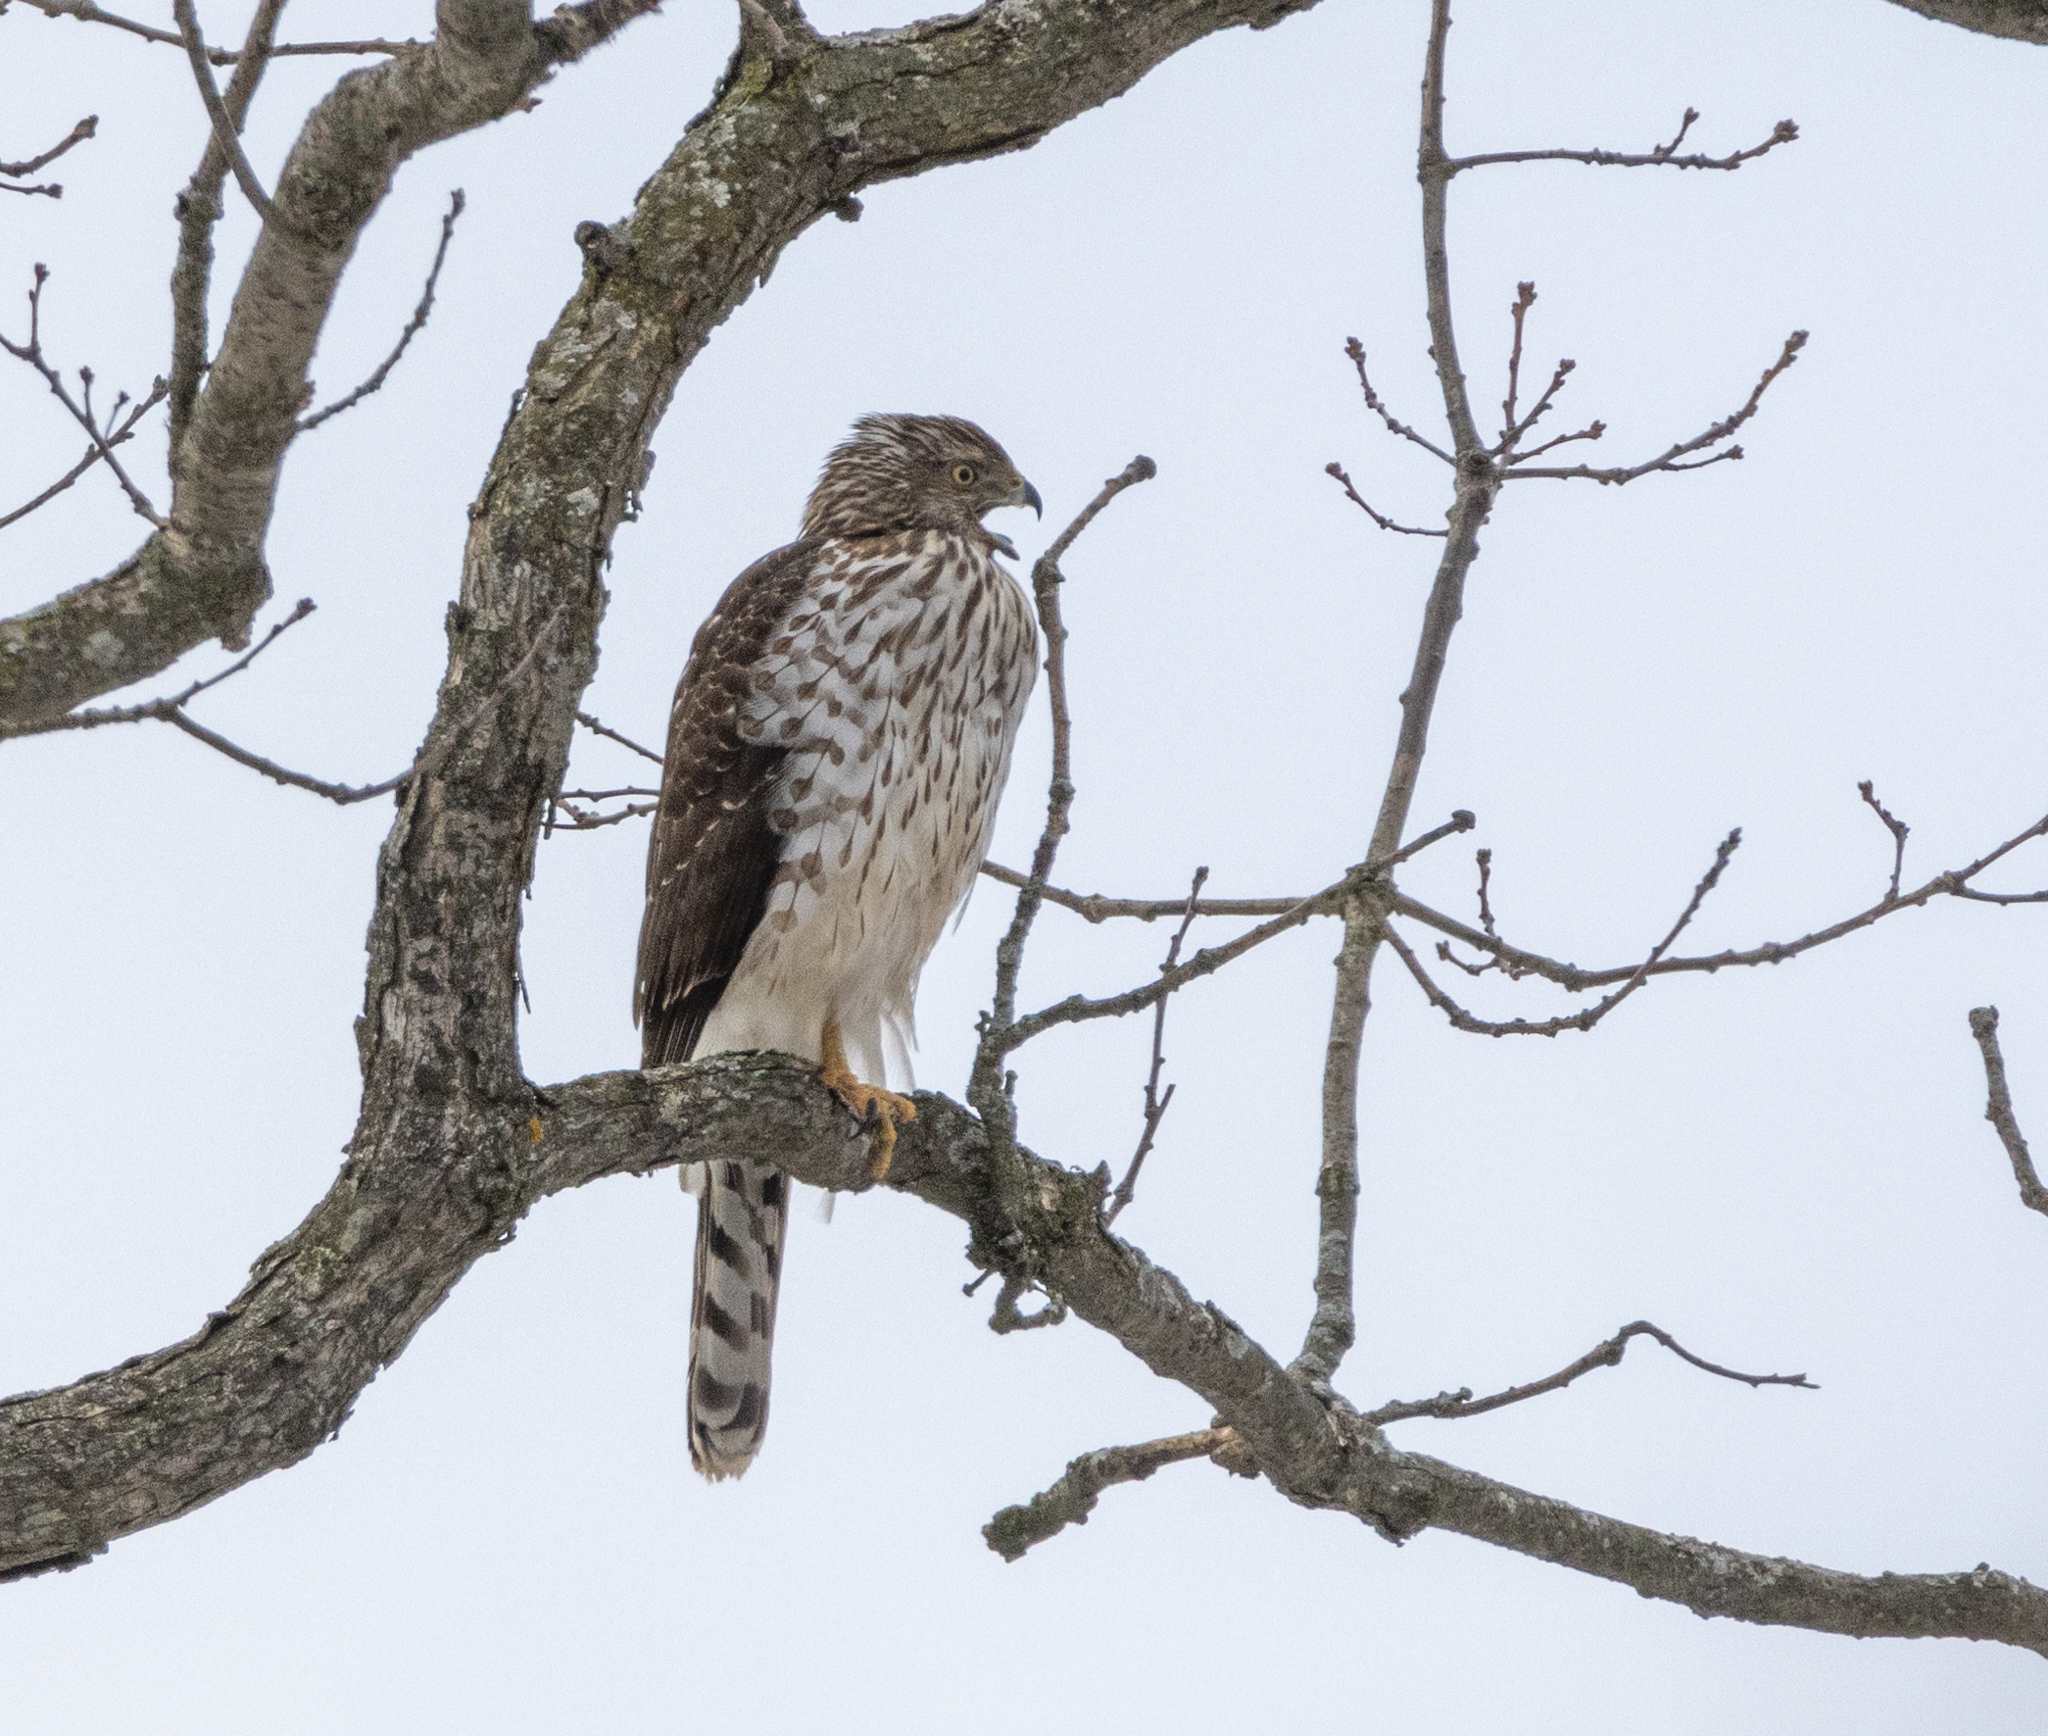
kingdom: Animalia
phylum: Chordata
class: Aves
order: Accipitriformes
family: Accipitridae
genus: Accipiter
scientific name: Accipiter cooperii
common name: Cooper's hawk
